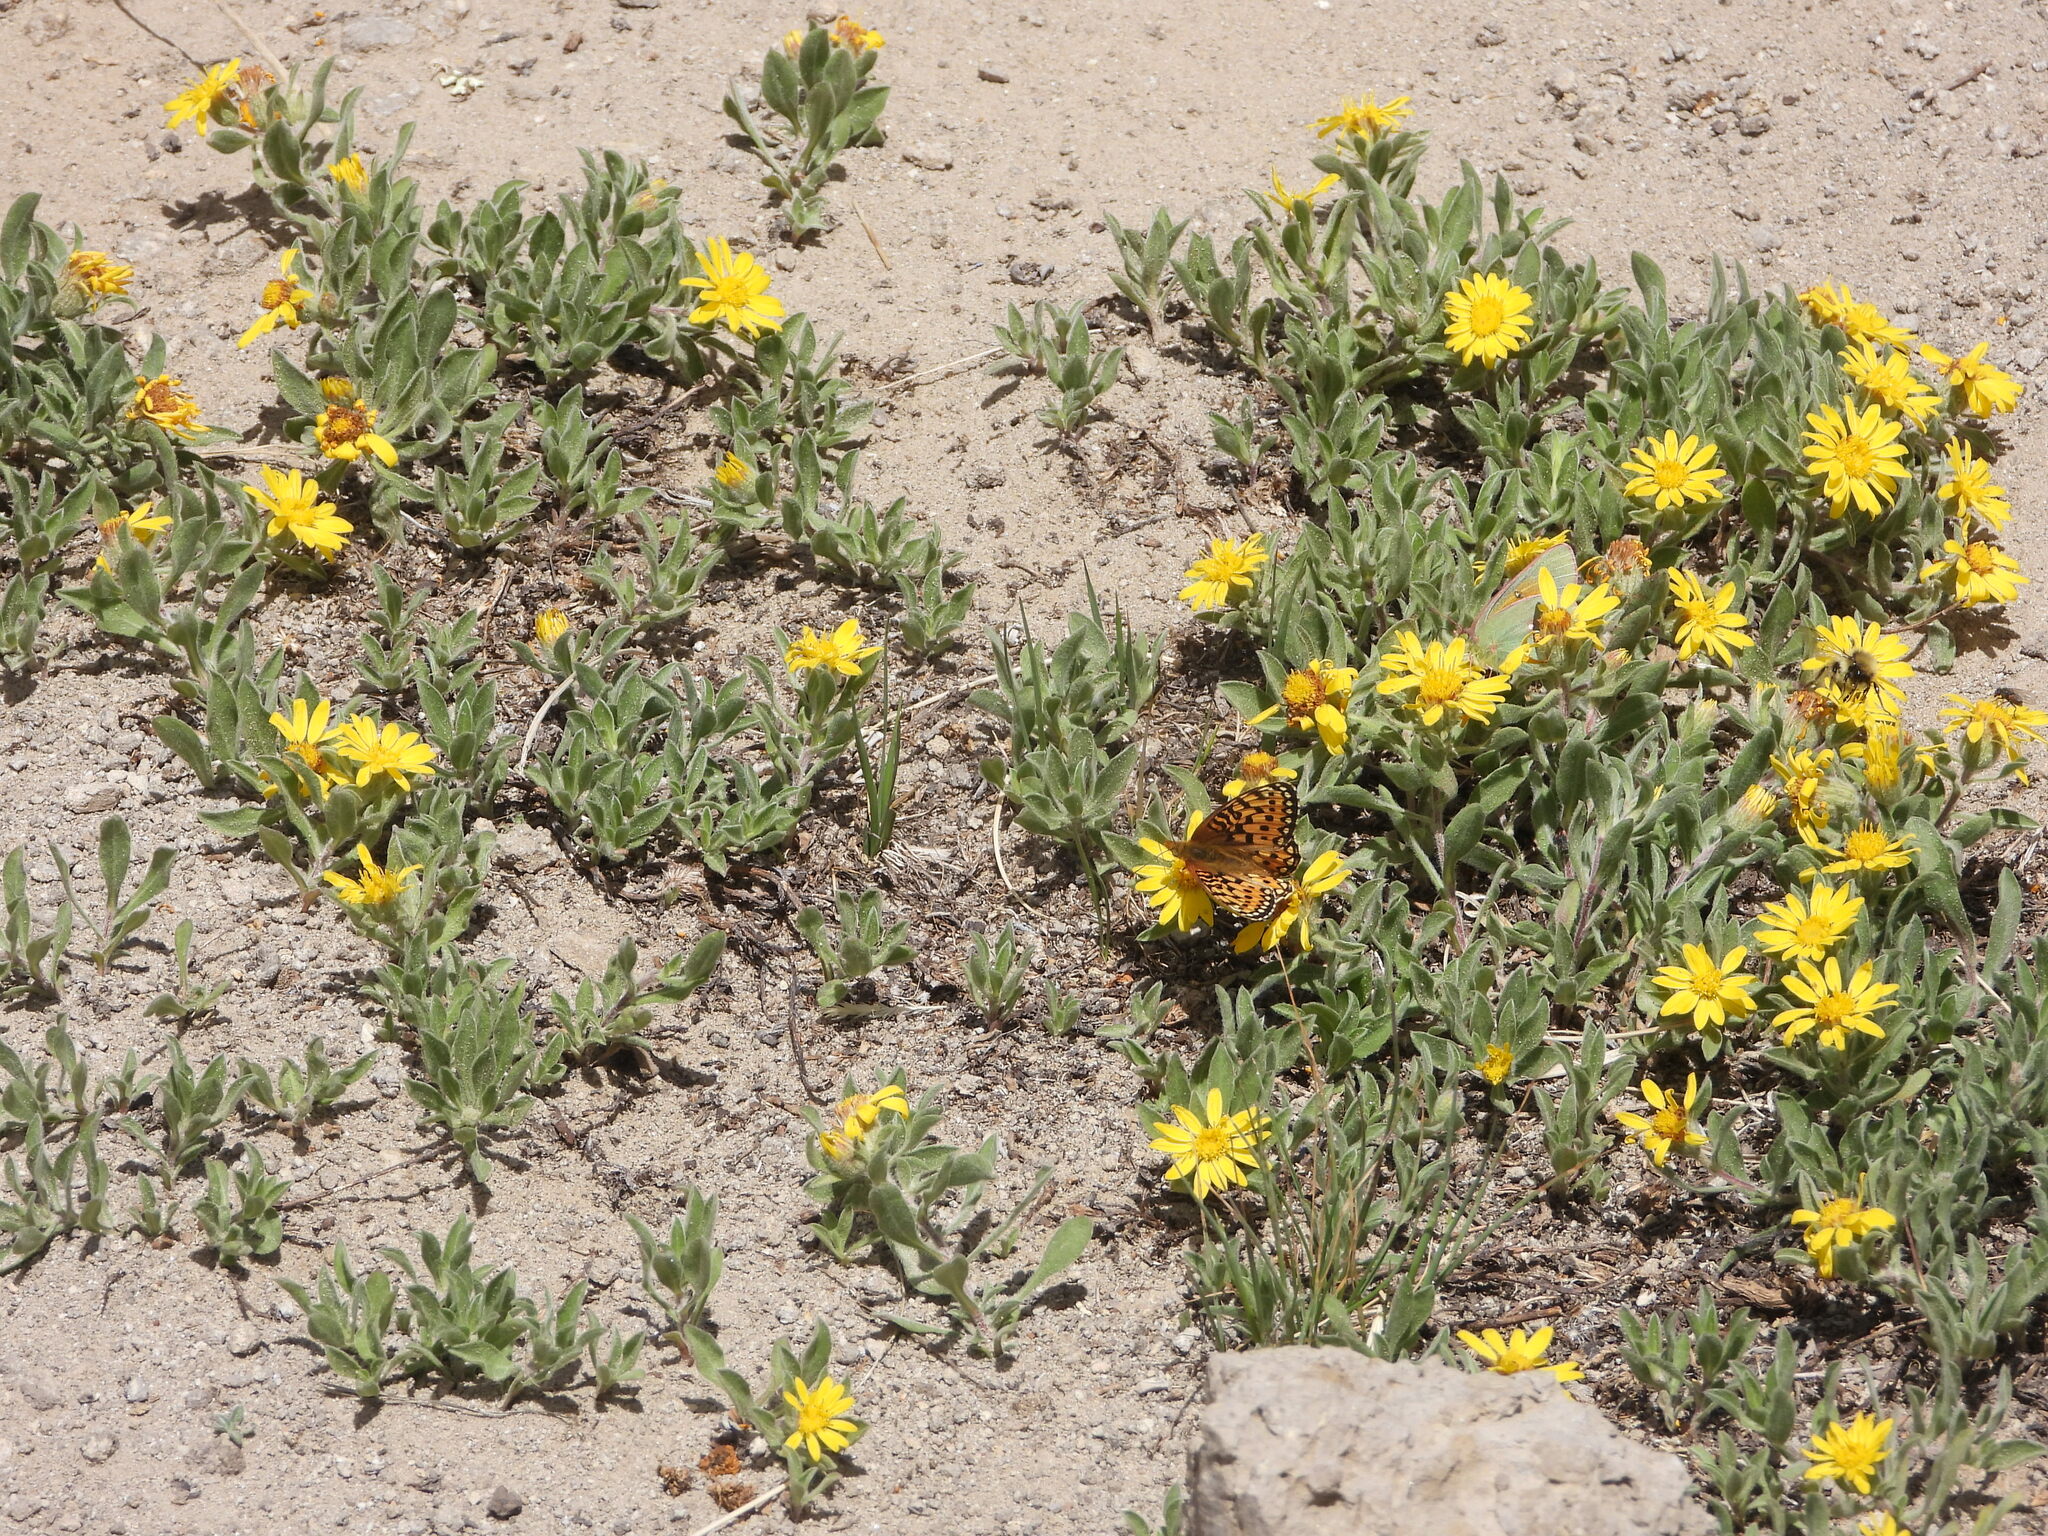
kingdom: Animalia
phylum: Arthropoda
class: Insecta
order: Lepidoptera
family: Nymphalidae
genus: Speyeria
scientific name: Speyeria mormonia
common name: Mormon fritillary
